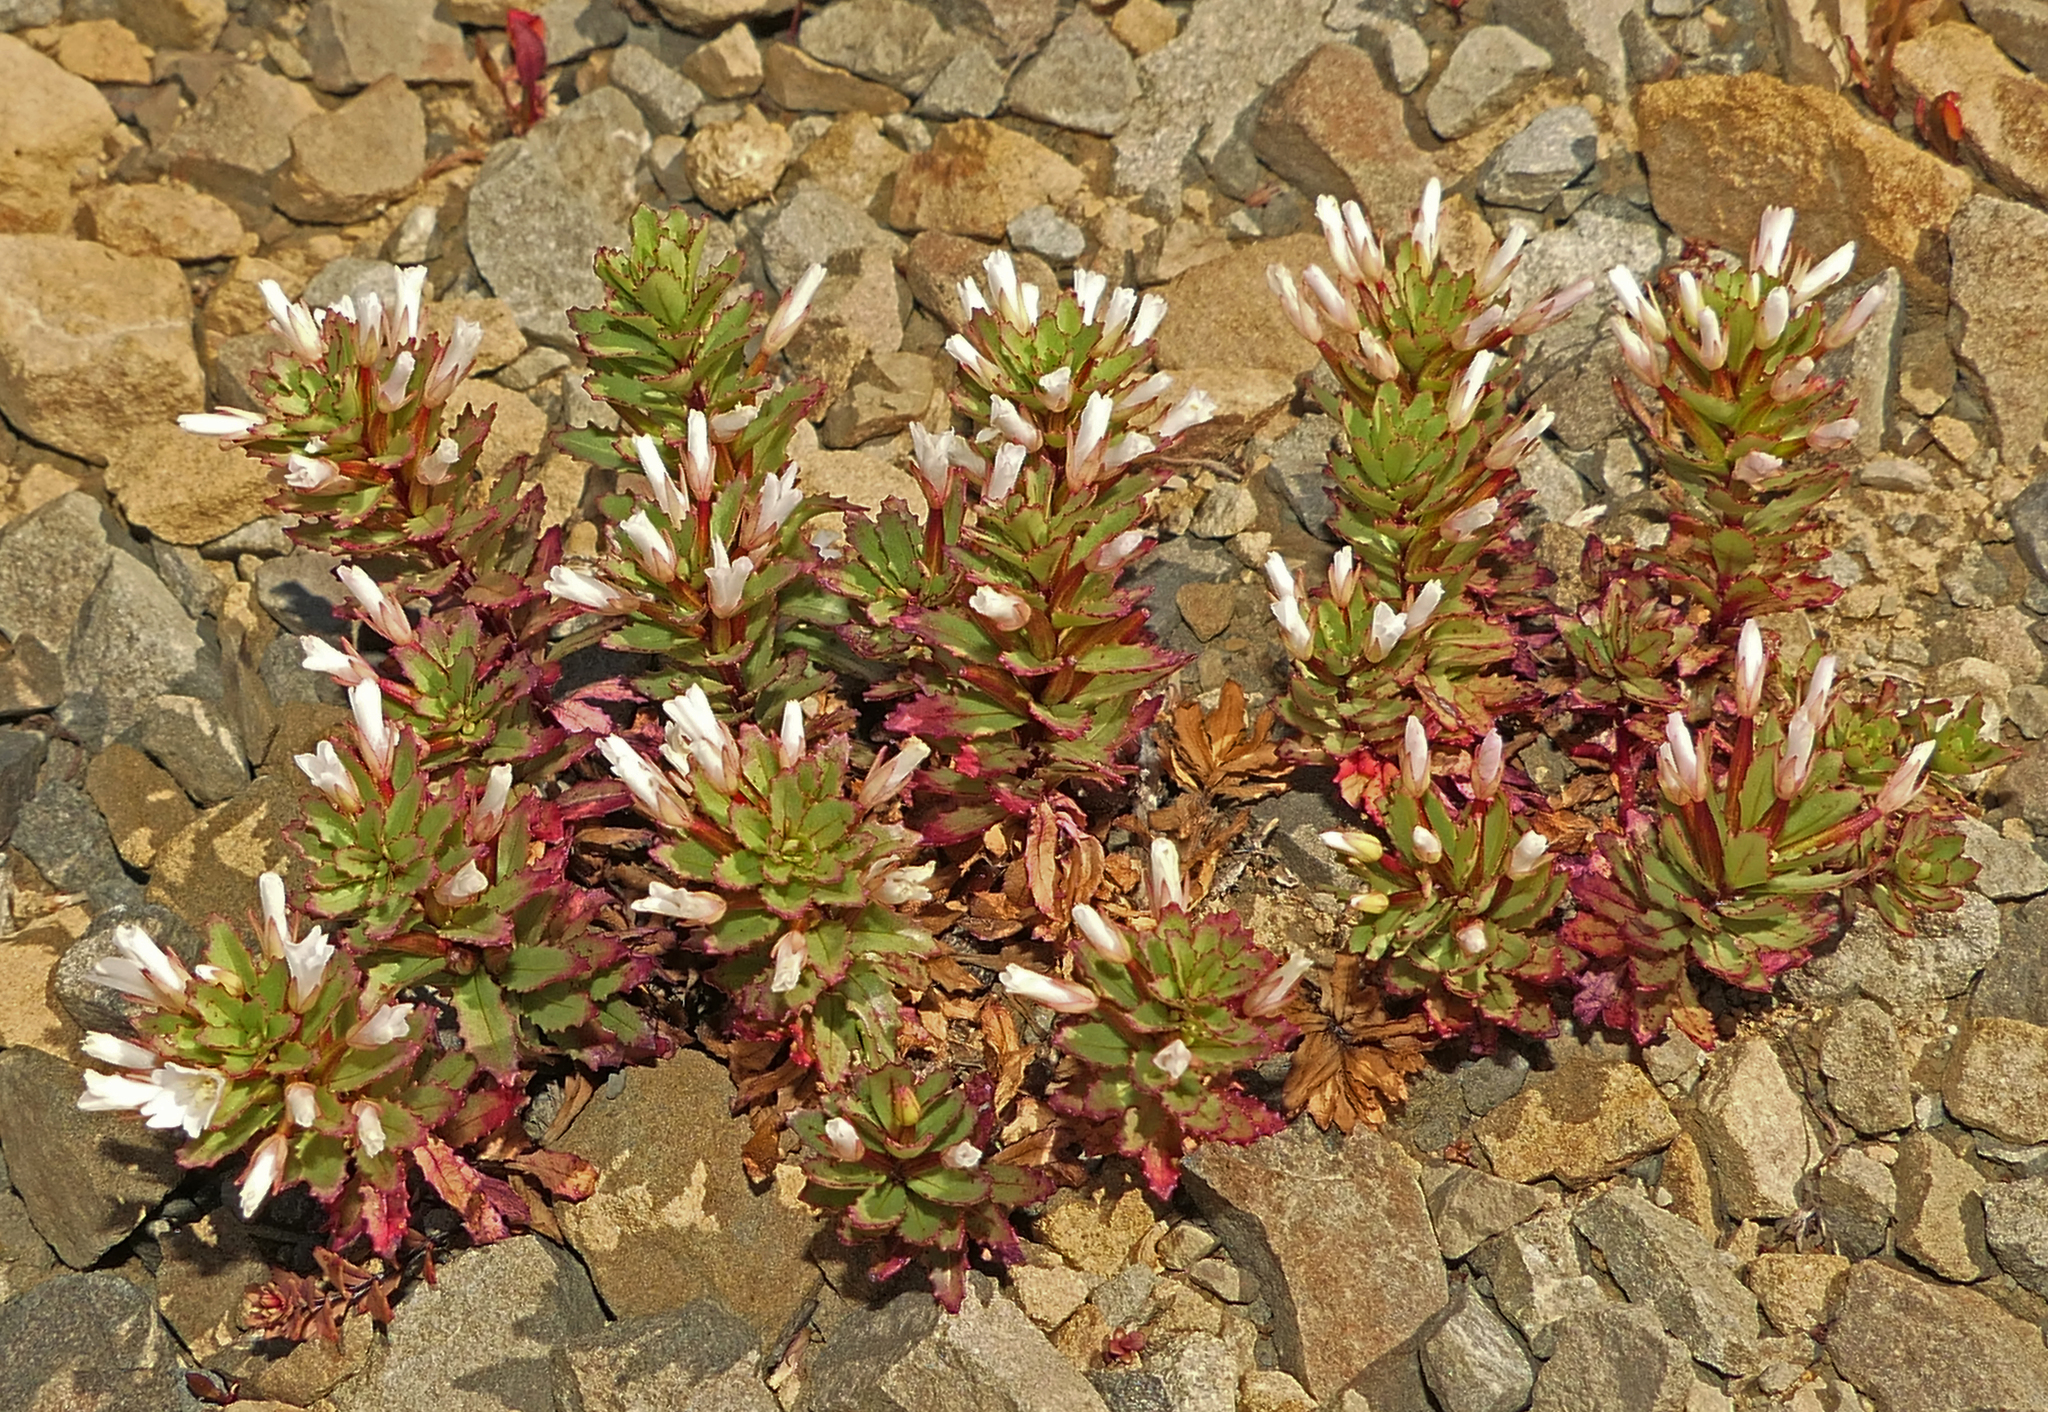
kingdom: Plantae
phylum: Tracheophyta
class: Magnoliopsida
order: Myrtales
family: Onagraceae
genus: Epilobium
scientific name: Epilobium pycnostachyum
